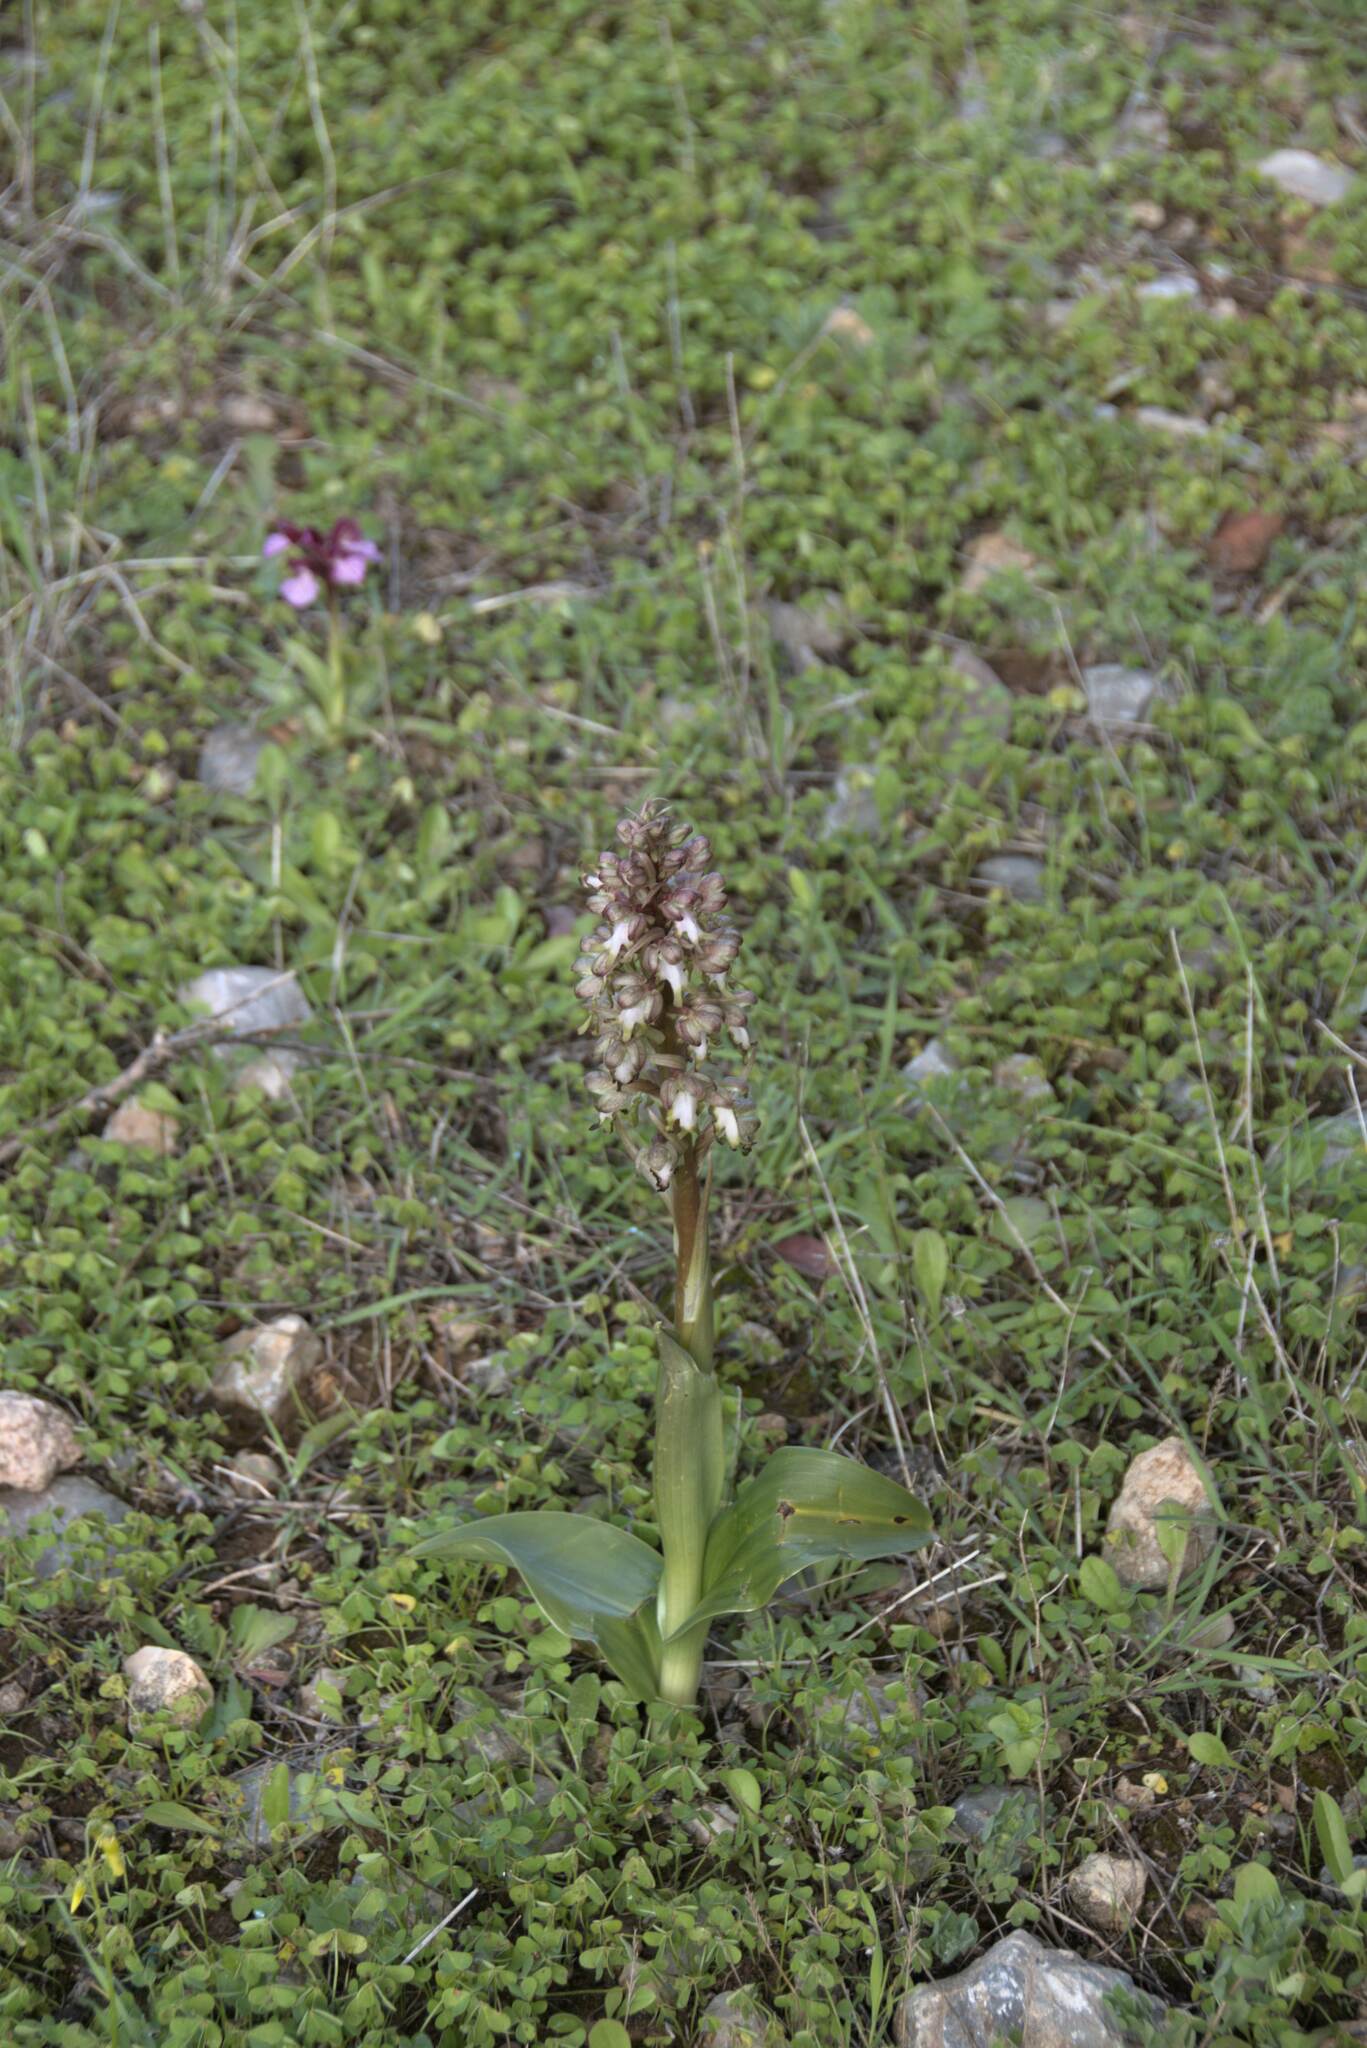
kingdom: Plantae
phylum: Tracheophyta
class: Liliopsida
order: Asparagales
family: Orchidaceae
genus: Himantoglossum
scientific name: Himantoglossum robertianum
